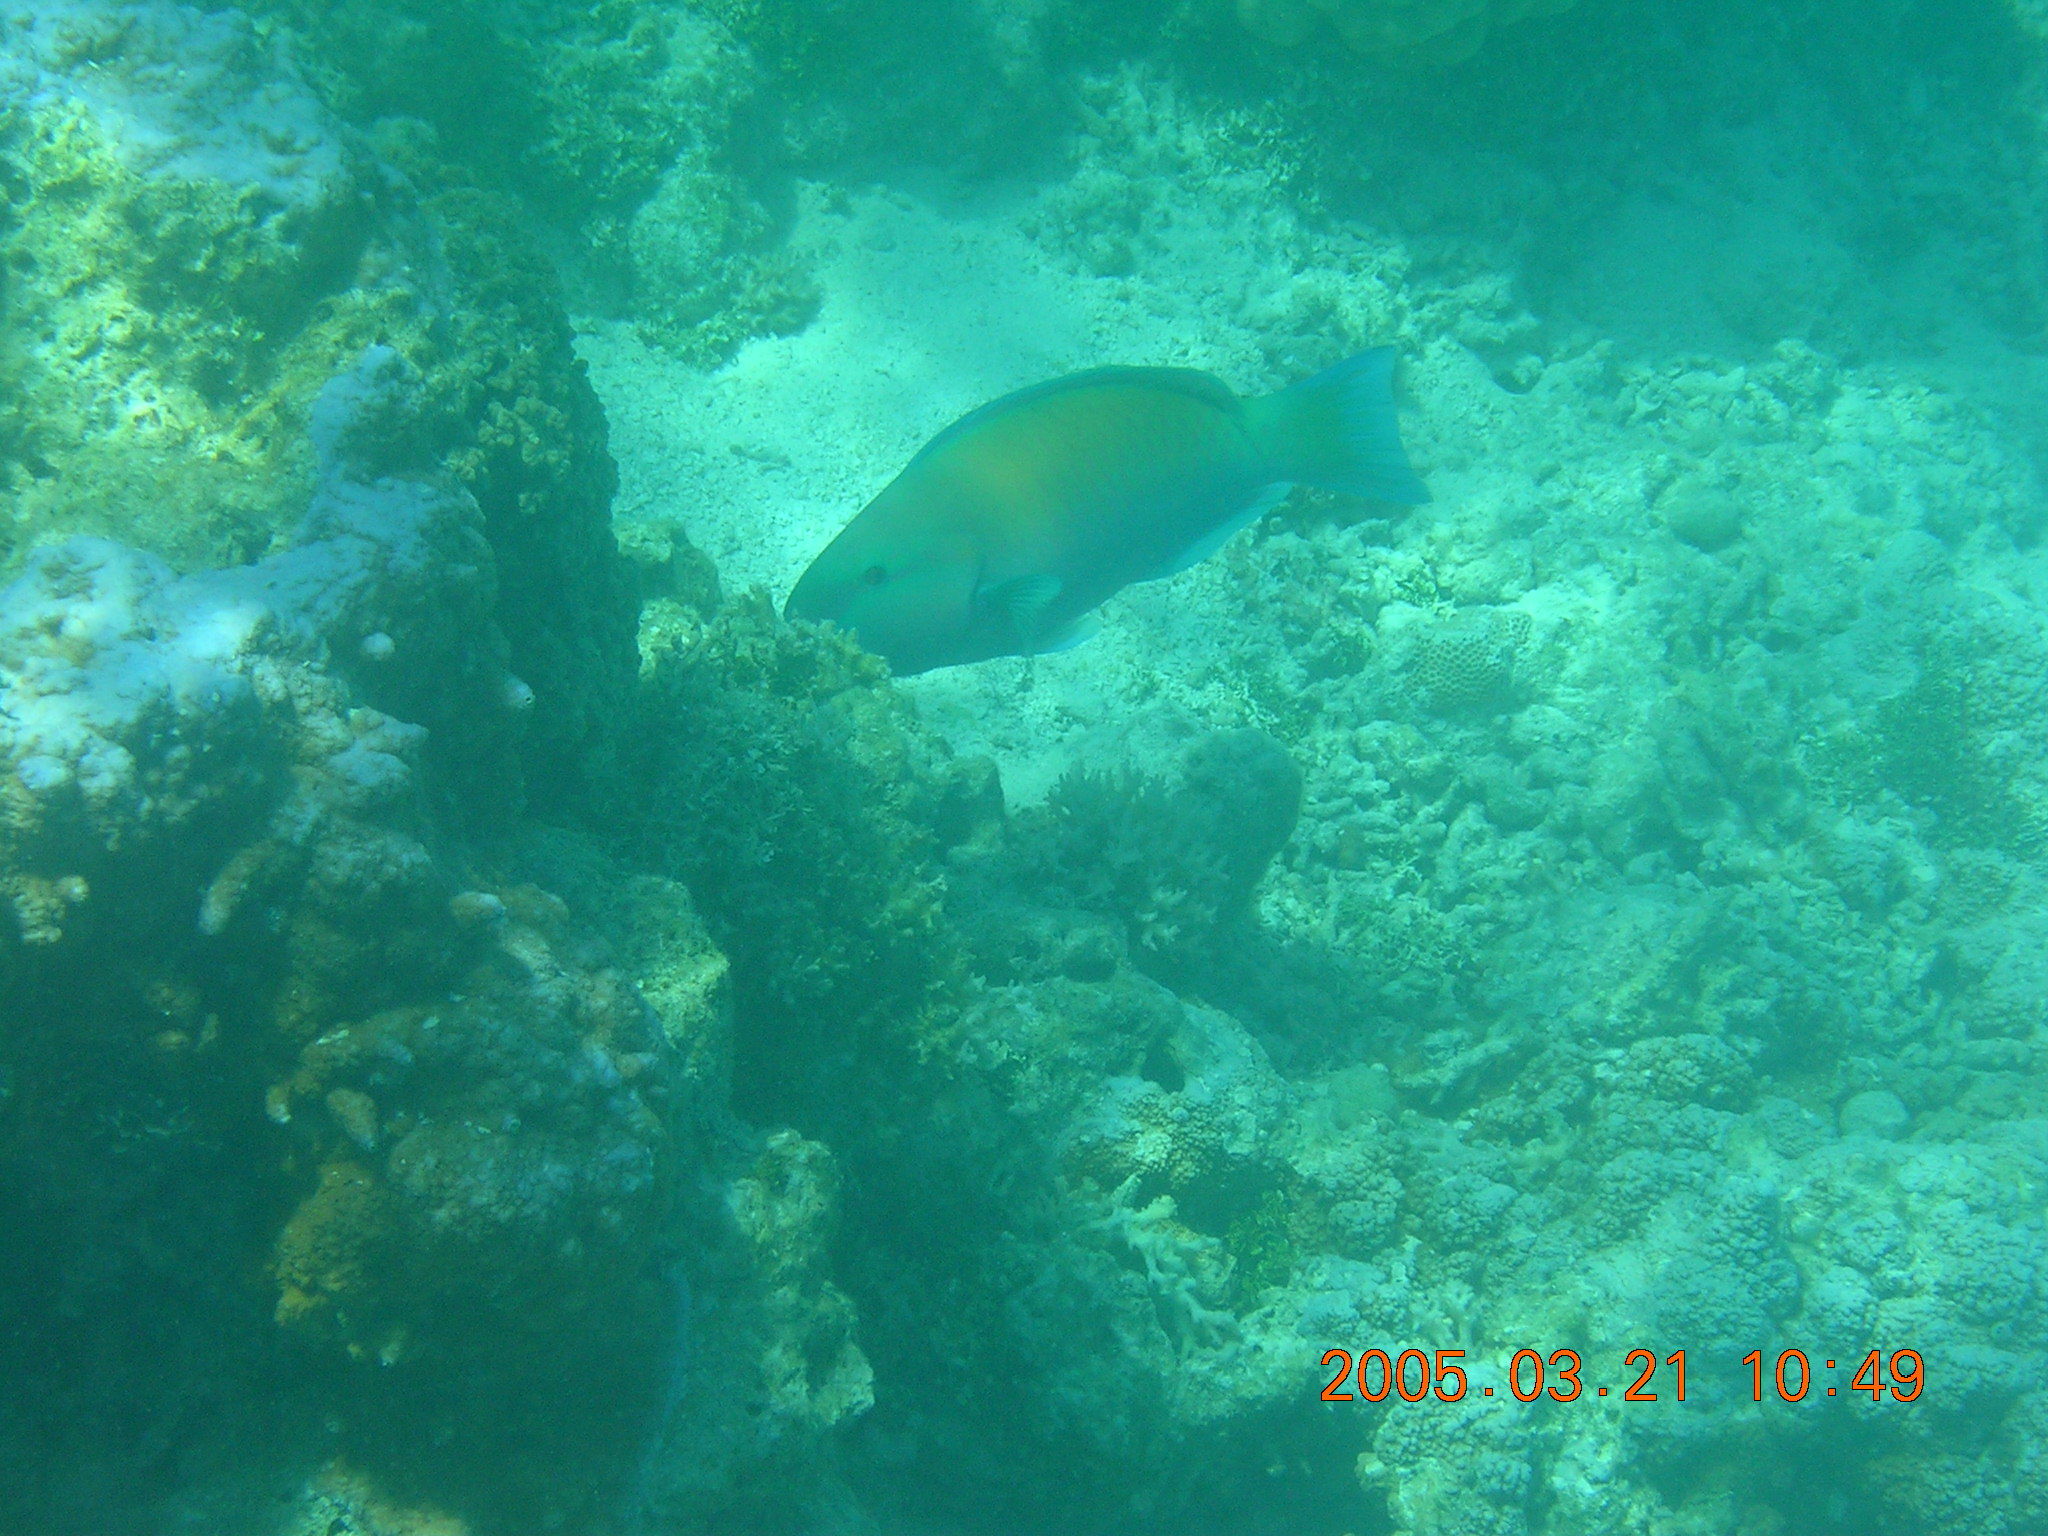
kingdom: Animalia
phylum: Chordata
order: Perciformes
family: Scaridae
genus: Chlorurus
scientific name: Chlorurus spilurus
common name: Bullethead parrotfish
